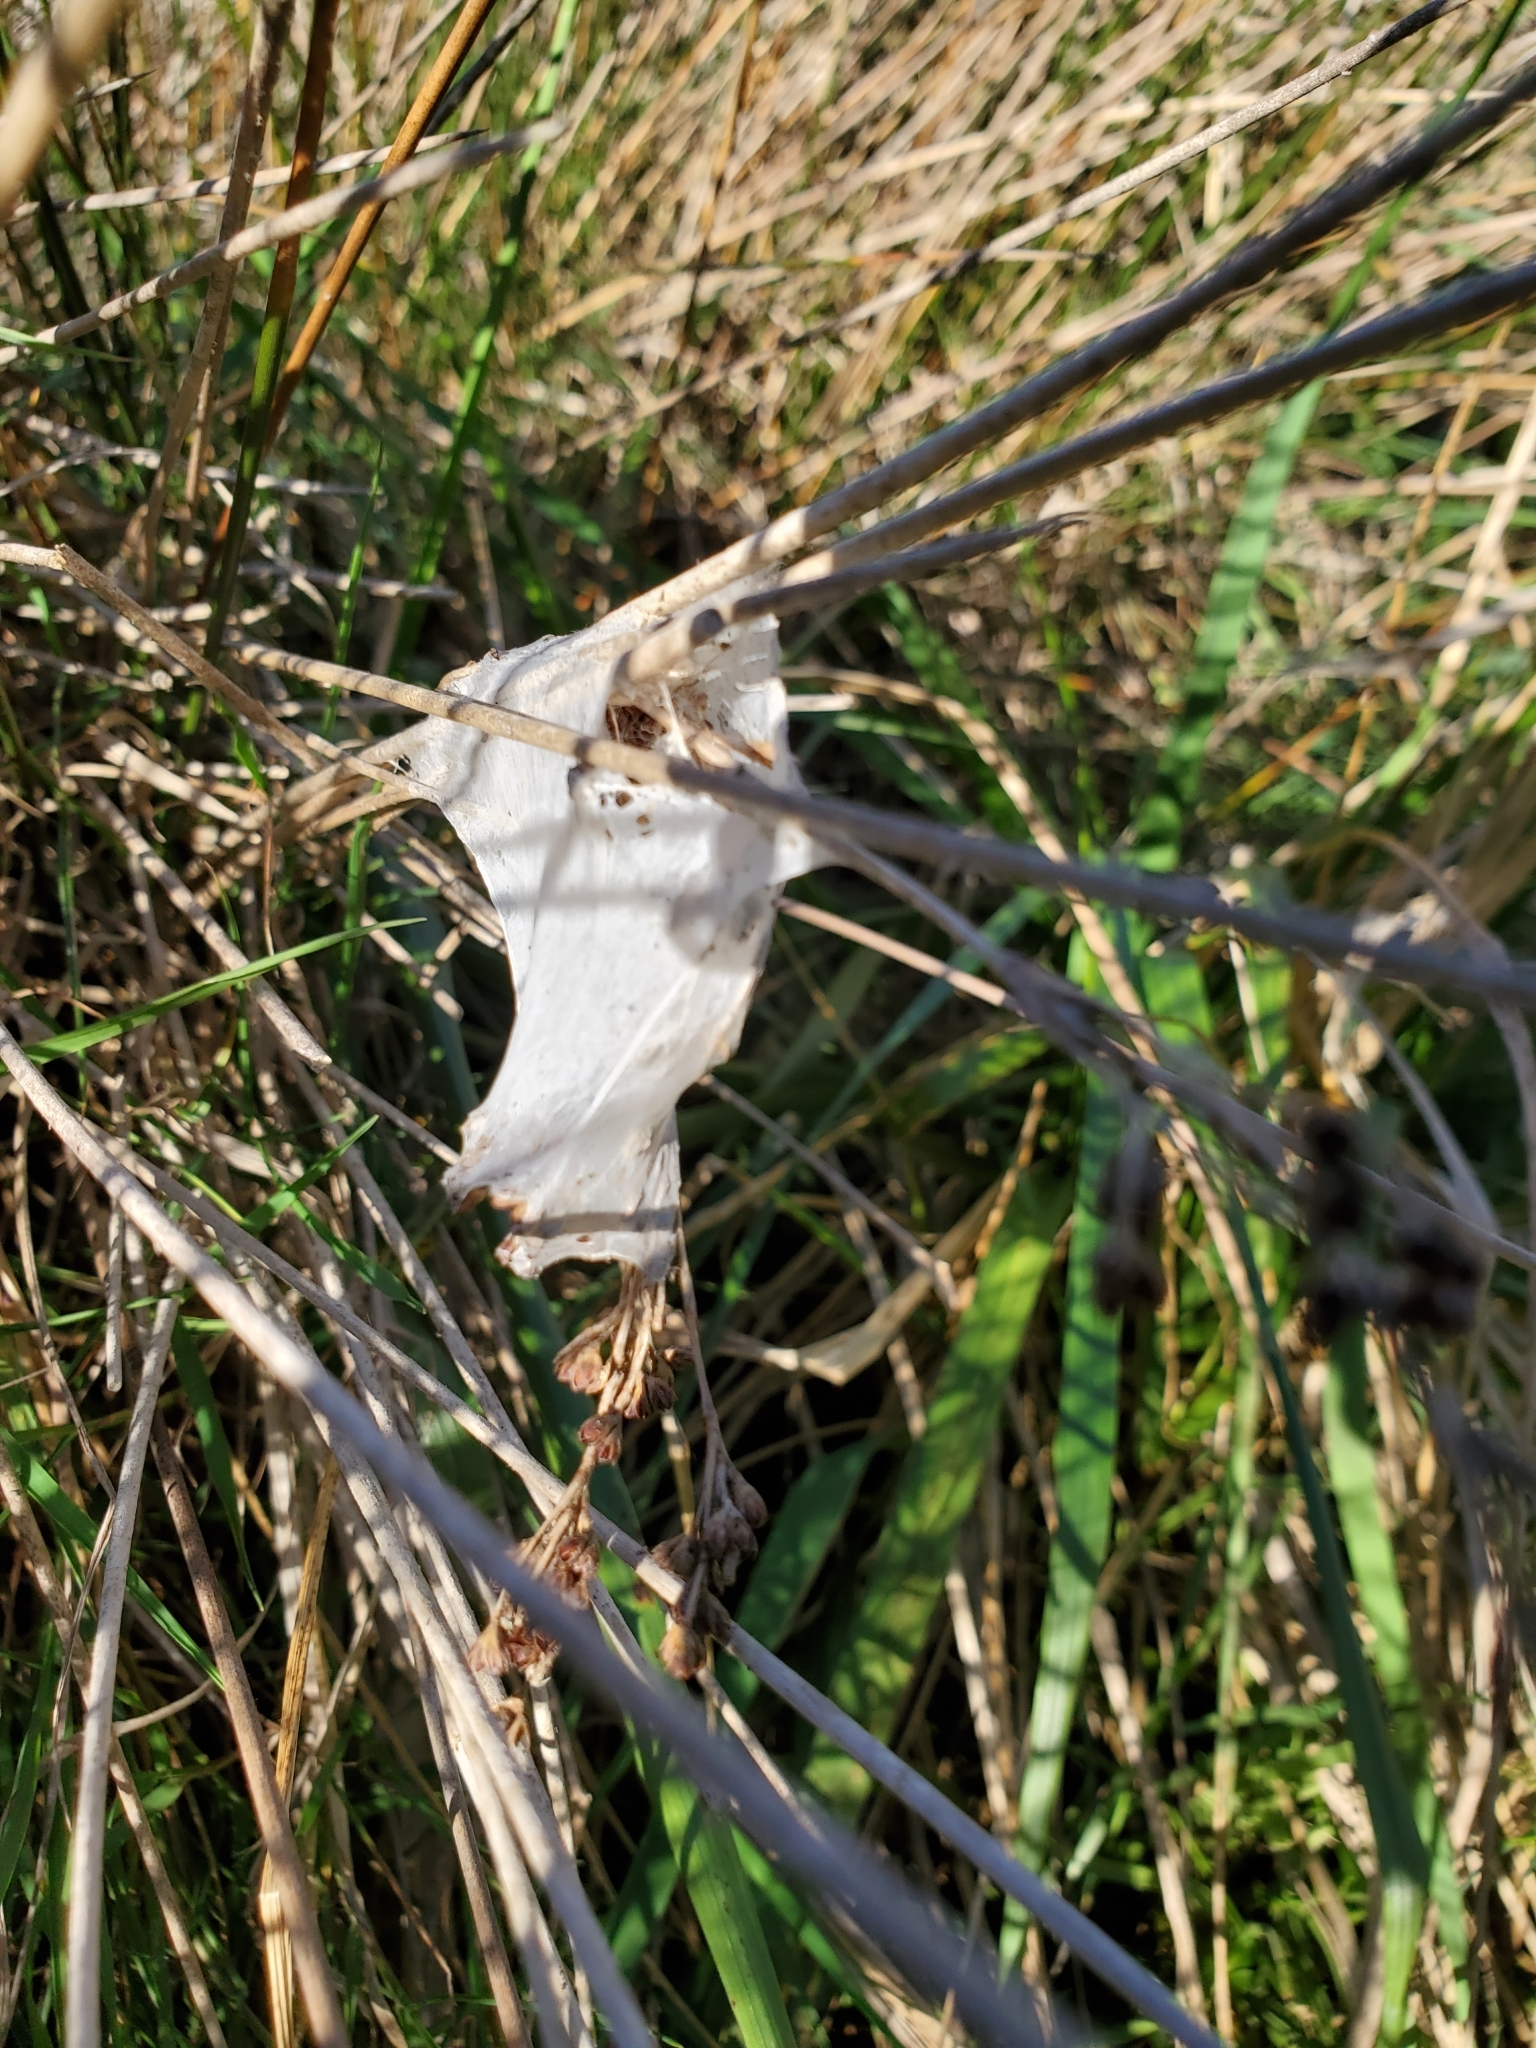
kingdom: Animalia
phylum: Arthropoda
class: Arachnida
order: Araneae
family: Pisauridae
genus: Dolomedes
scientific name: Dolomedes minor
